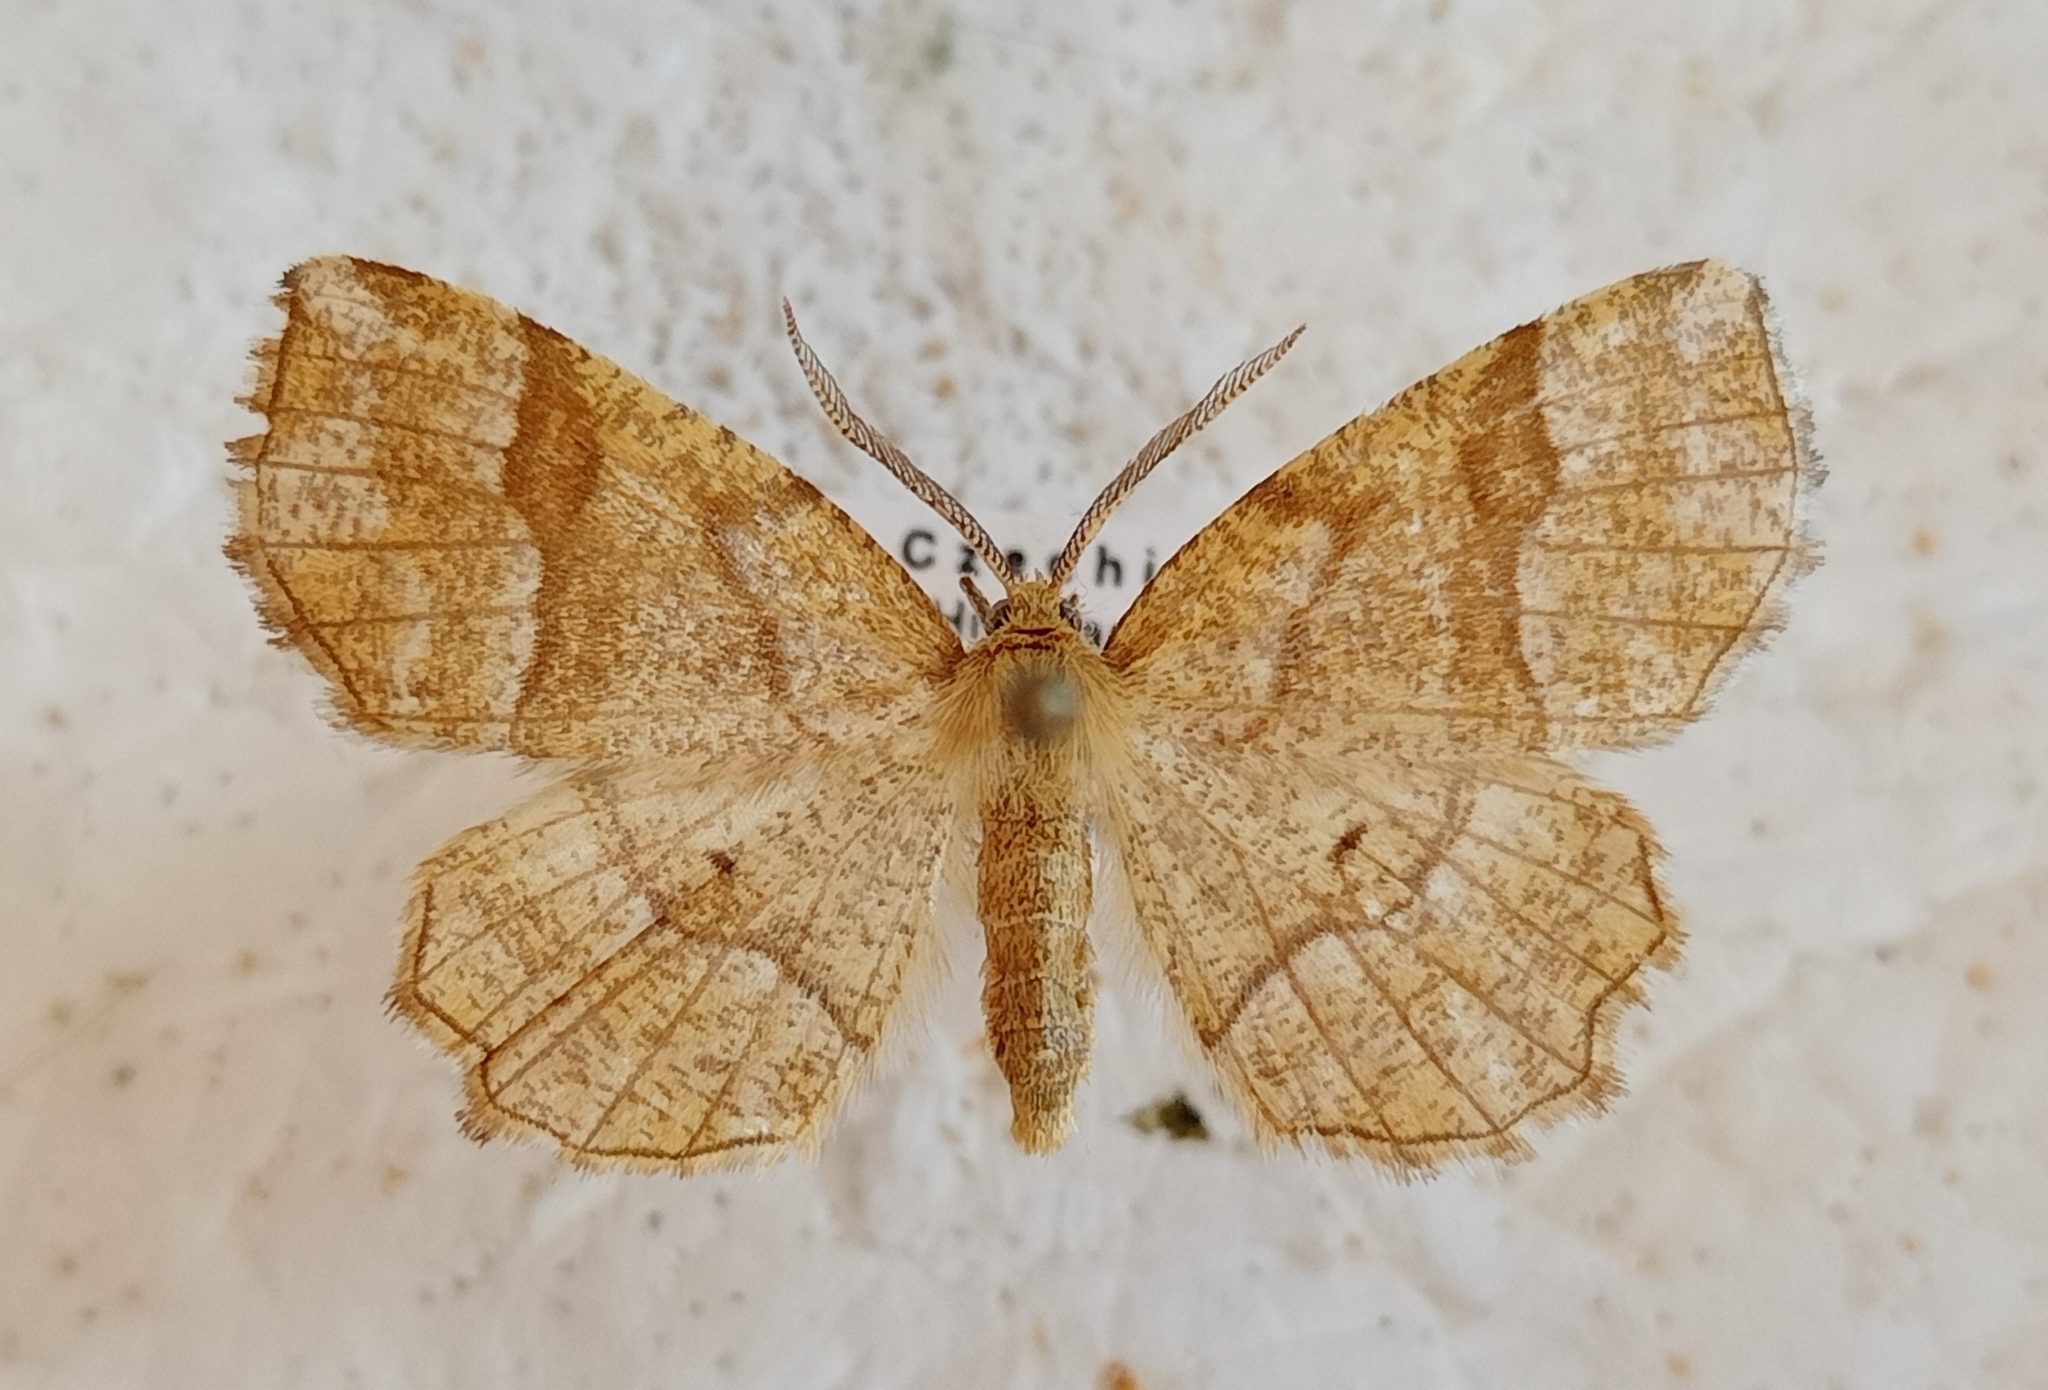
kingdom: Animalia
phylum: Arthropoda
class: Insecta
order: Lepidoptera
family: Geometridae
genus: Cepphis
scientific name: Cepphis advenaria
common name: Little thorn
